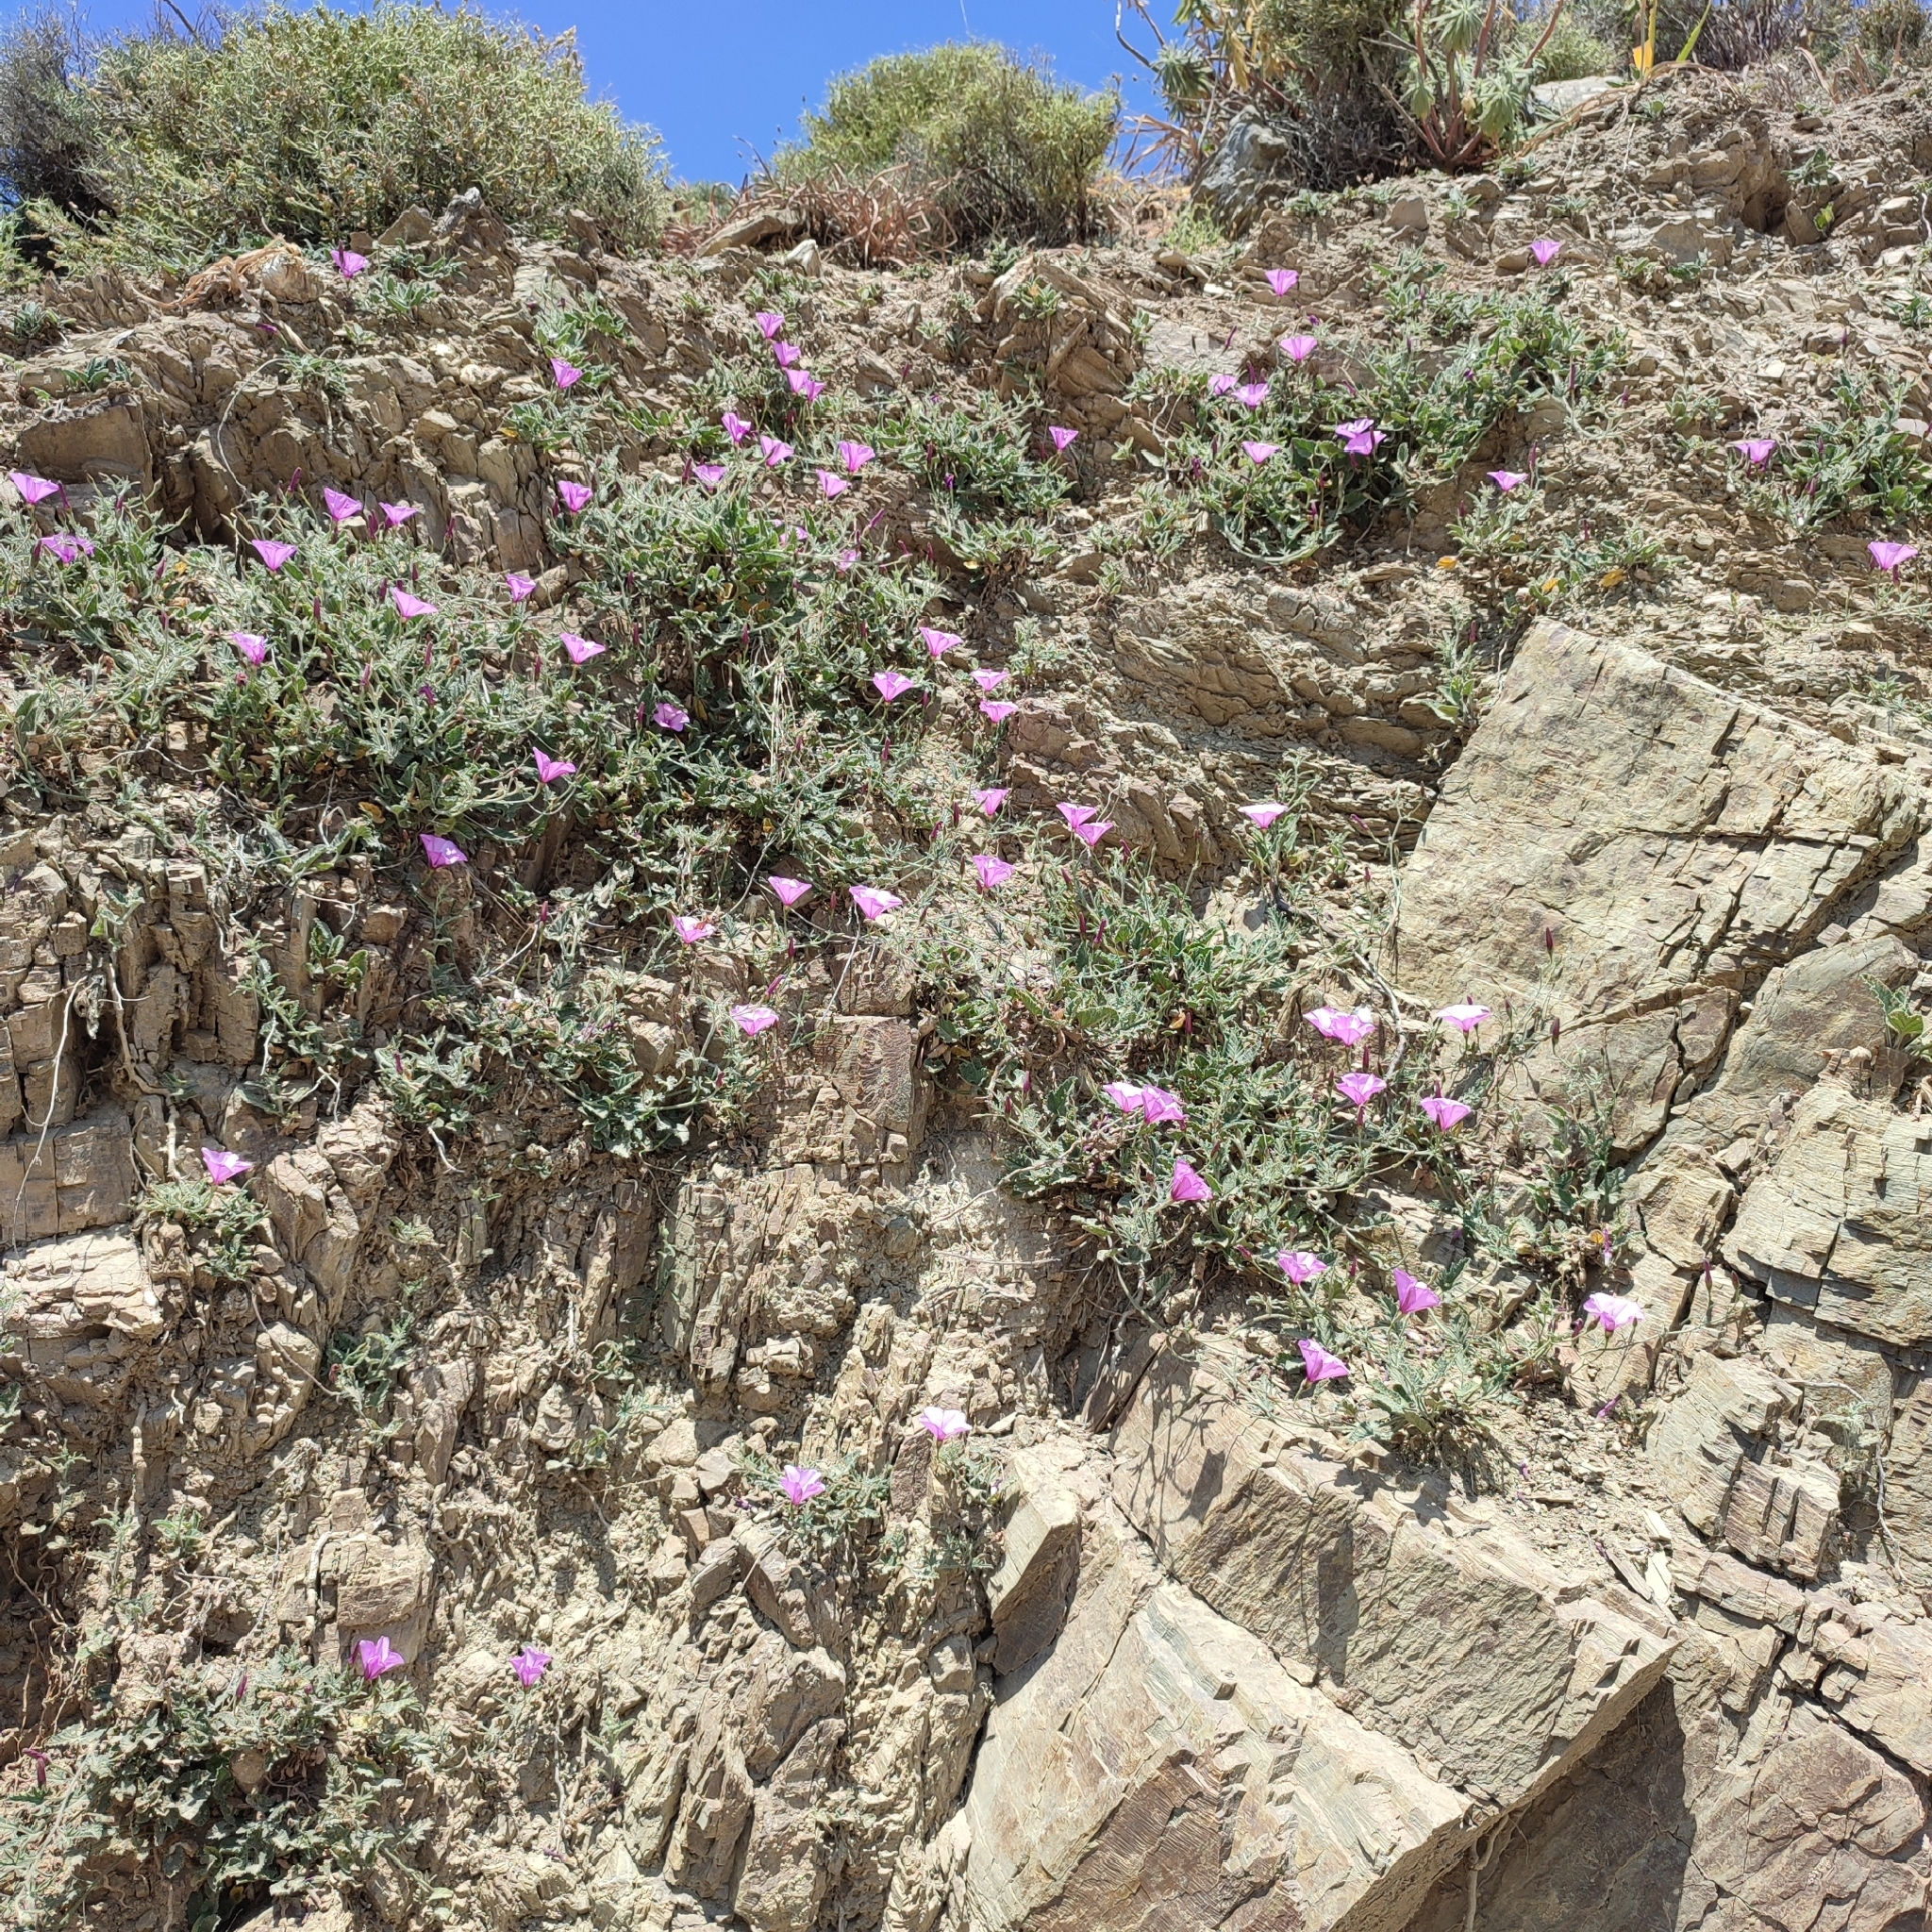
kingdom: Plantae
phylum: Tracheophyta
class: Magnoliopsida
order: Solanales
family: Convolvulaceae
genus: Convolvulus
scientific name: Convolvulus althaeoides
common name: Mallow bindweed
